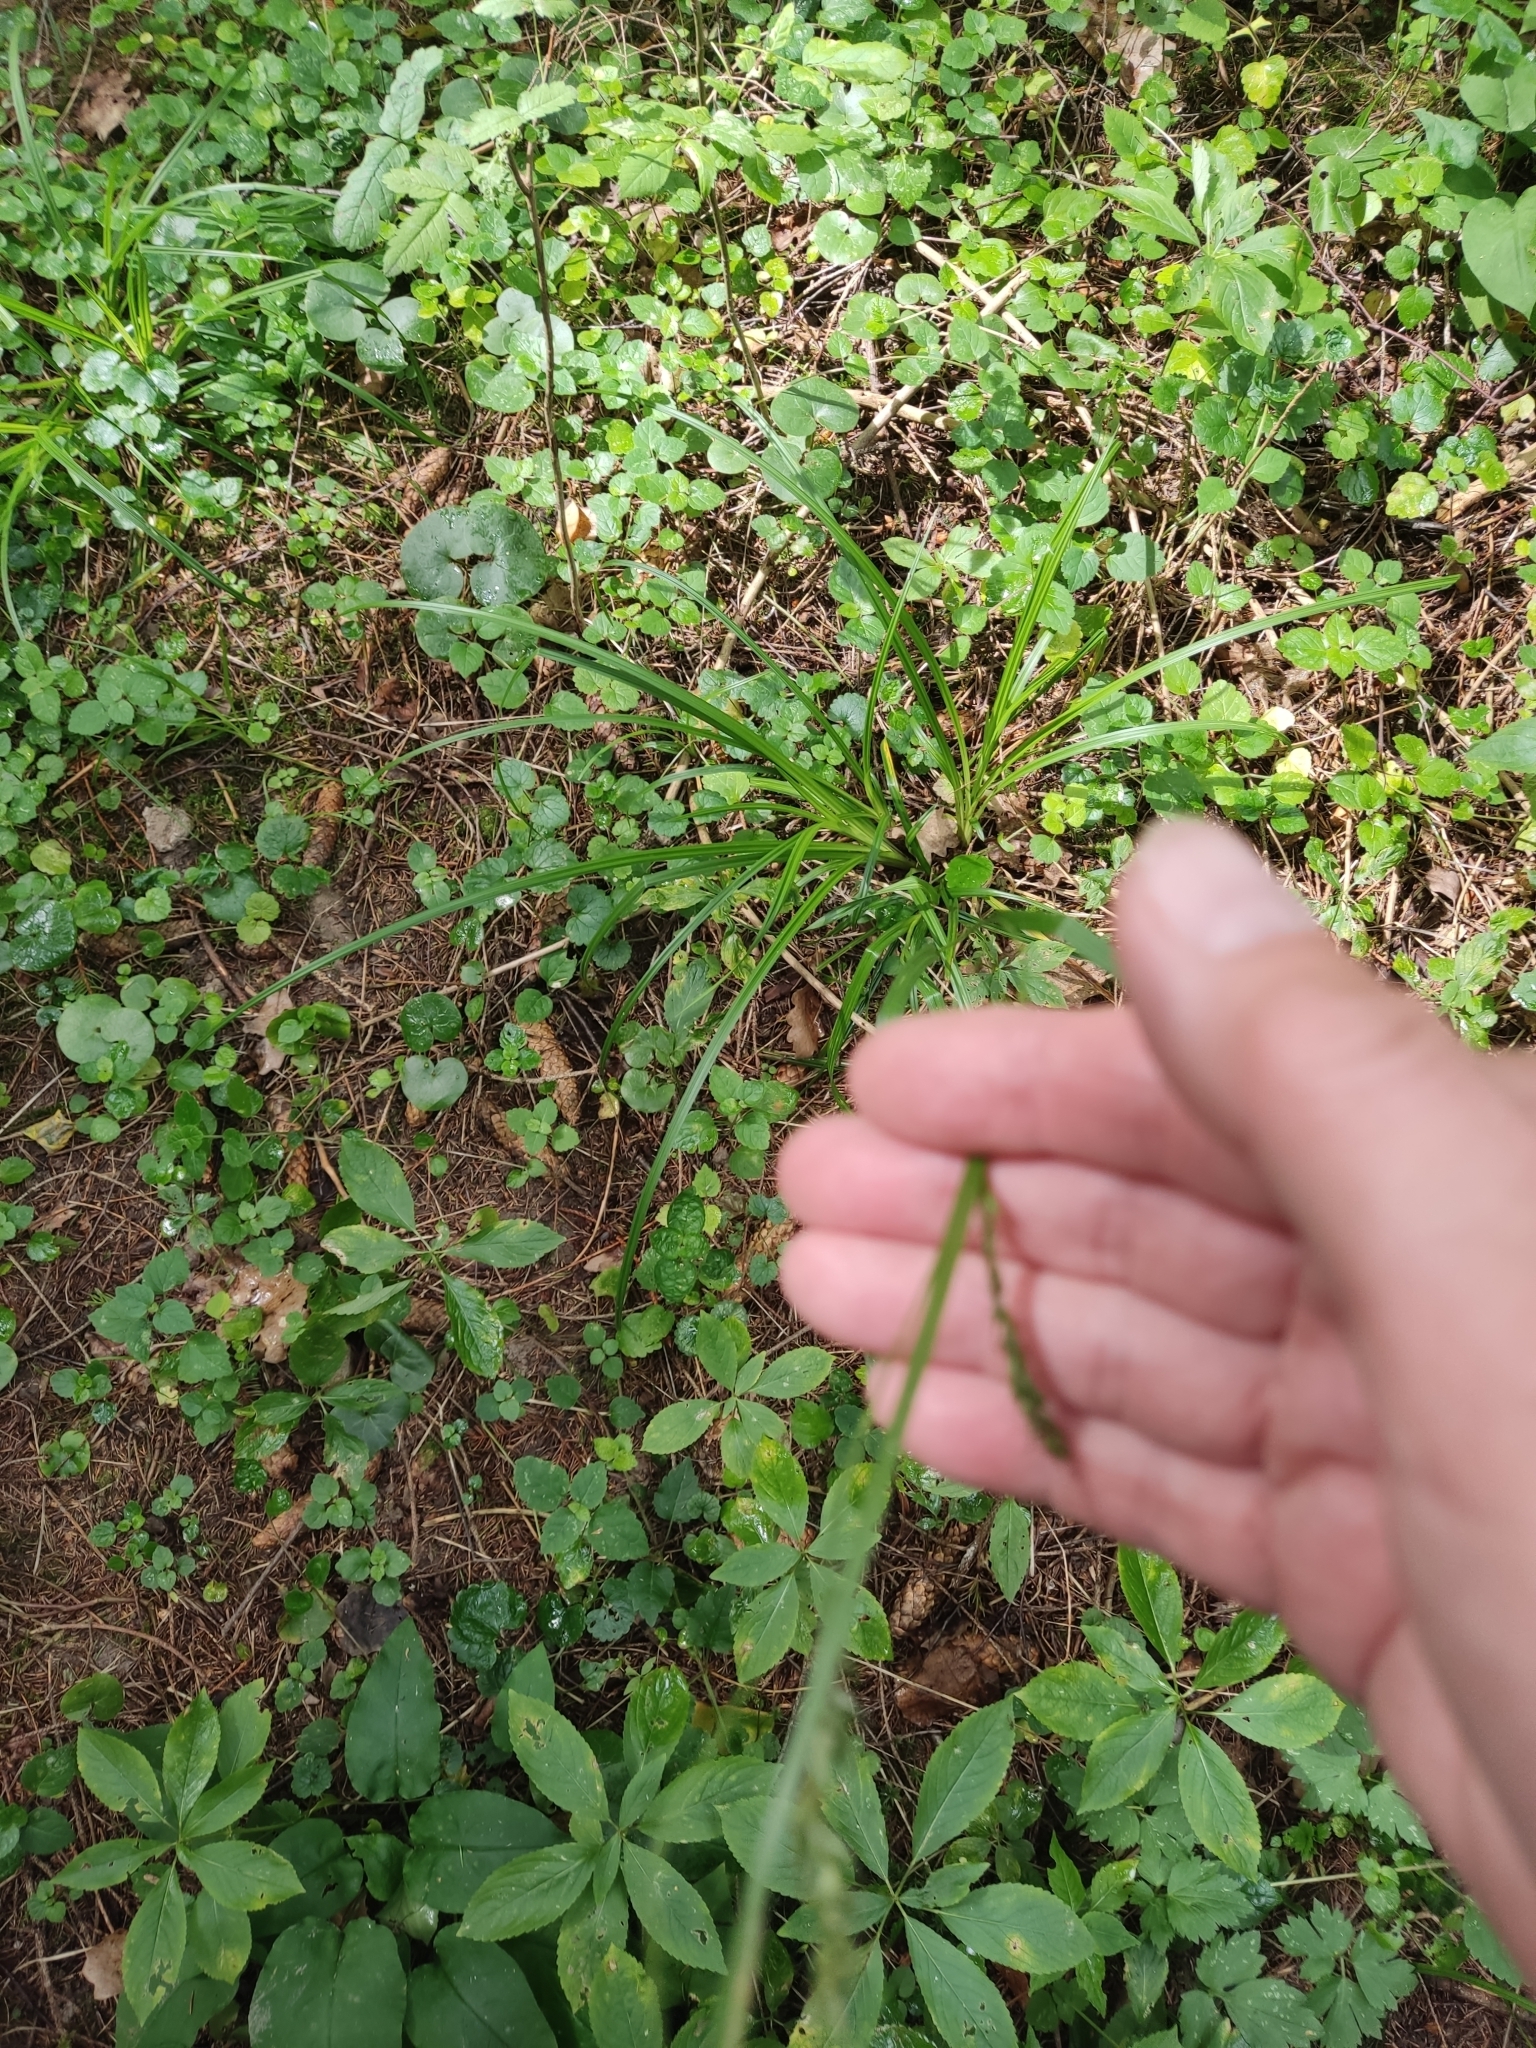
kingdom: Plantae
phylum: Tracheophyta
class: Liliopsida
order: Poales
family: Cyperaceae
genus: Carex
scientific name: Carex sylvatica
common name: Wood-sedge
